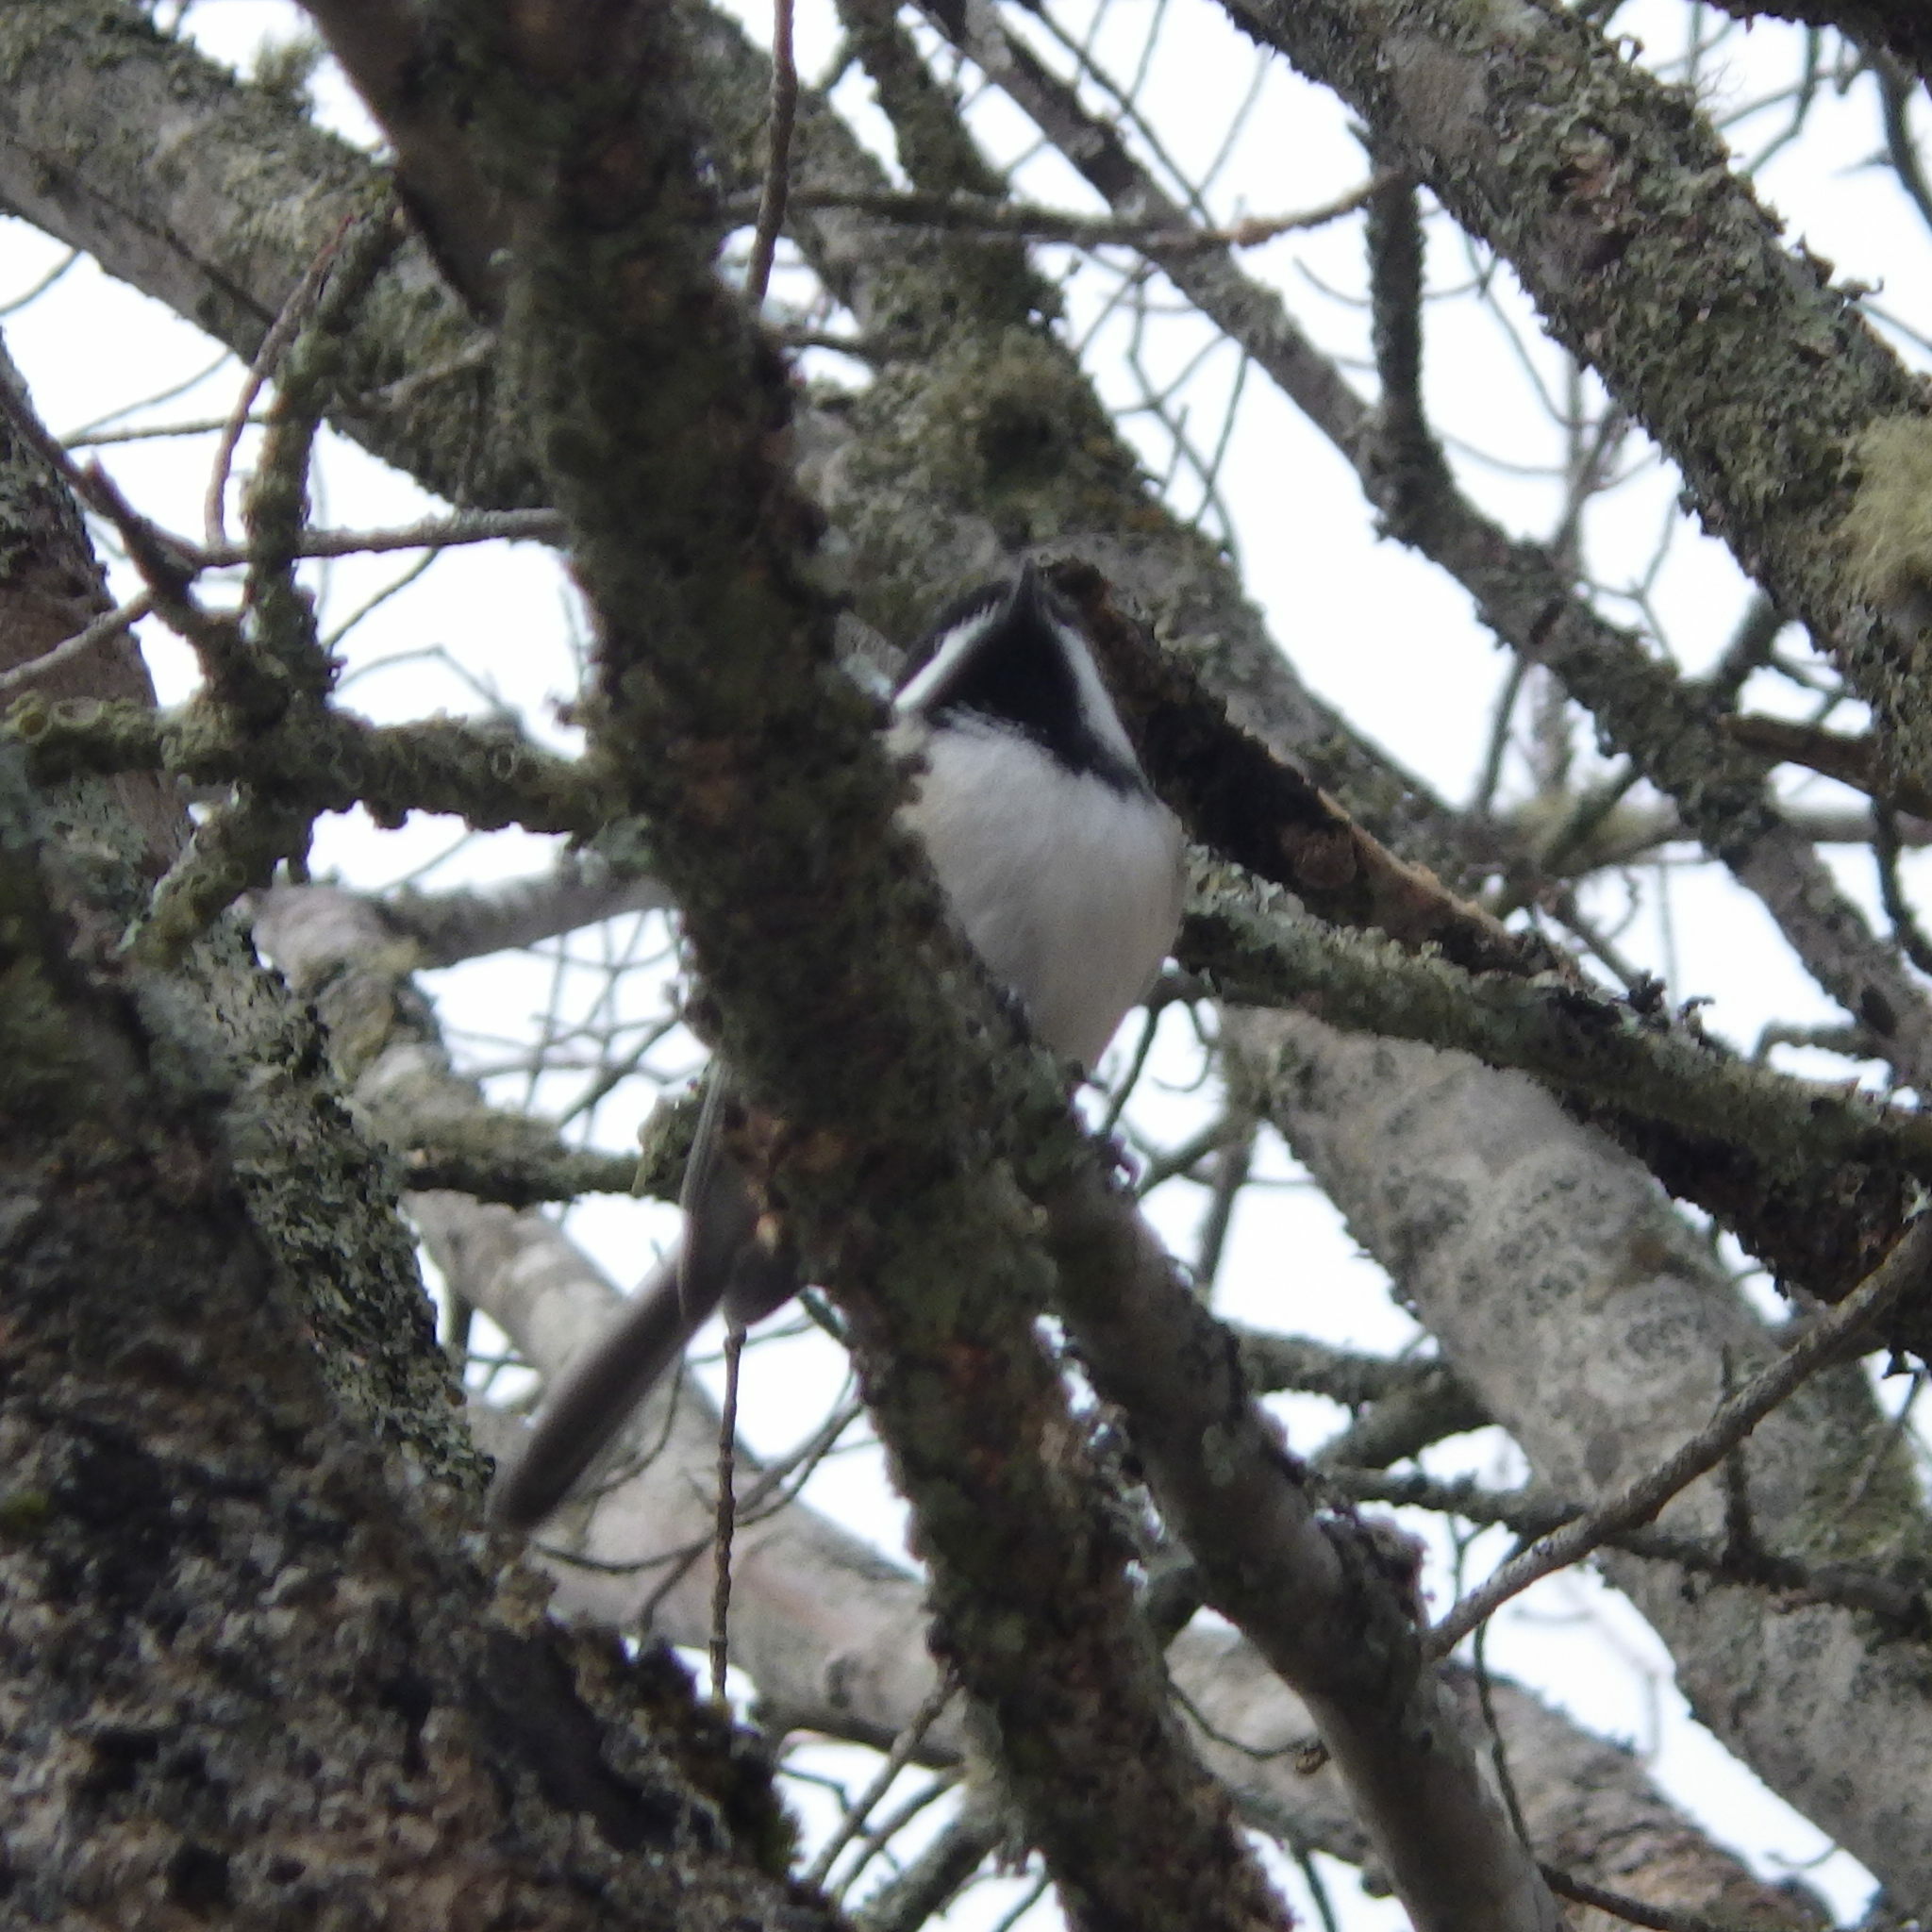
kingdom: Animalia
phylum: Chordata
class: Aves
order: Passeriformes
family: Paridae
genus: Poecile
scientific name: Poecile atricapillus
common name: Black-capped chickadee
